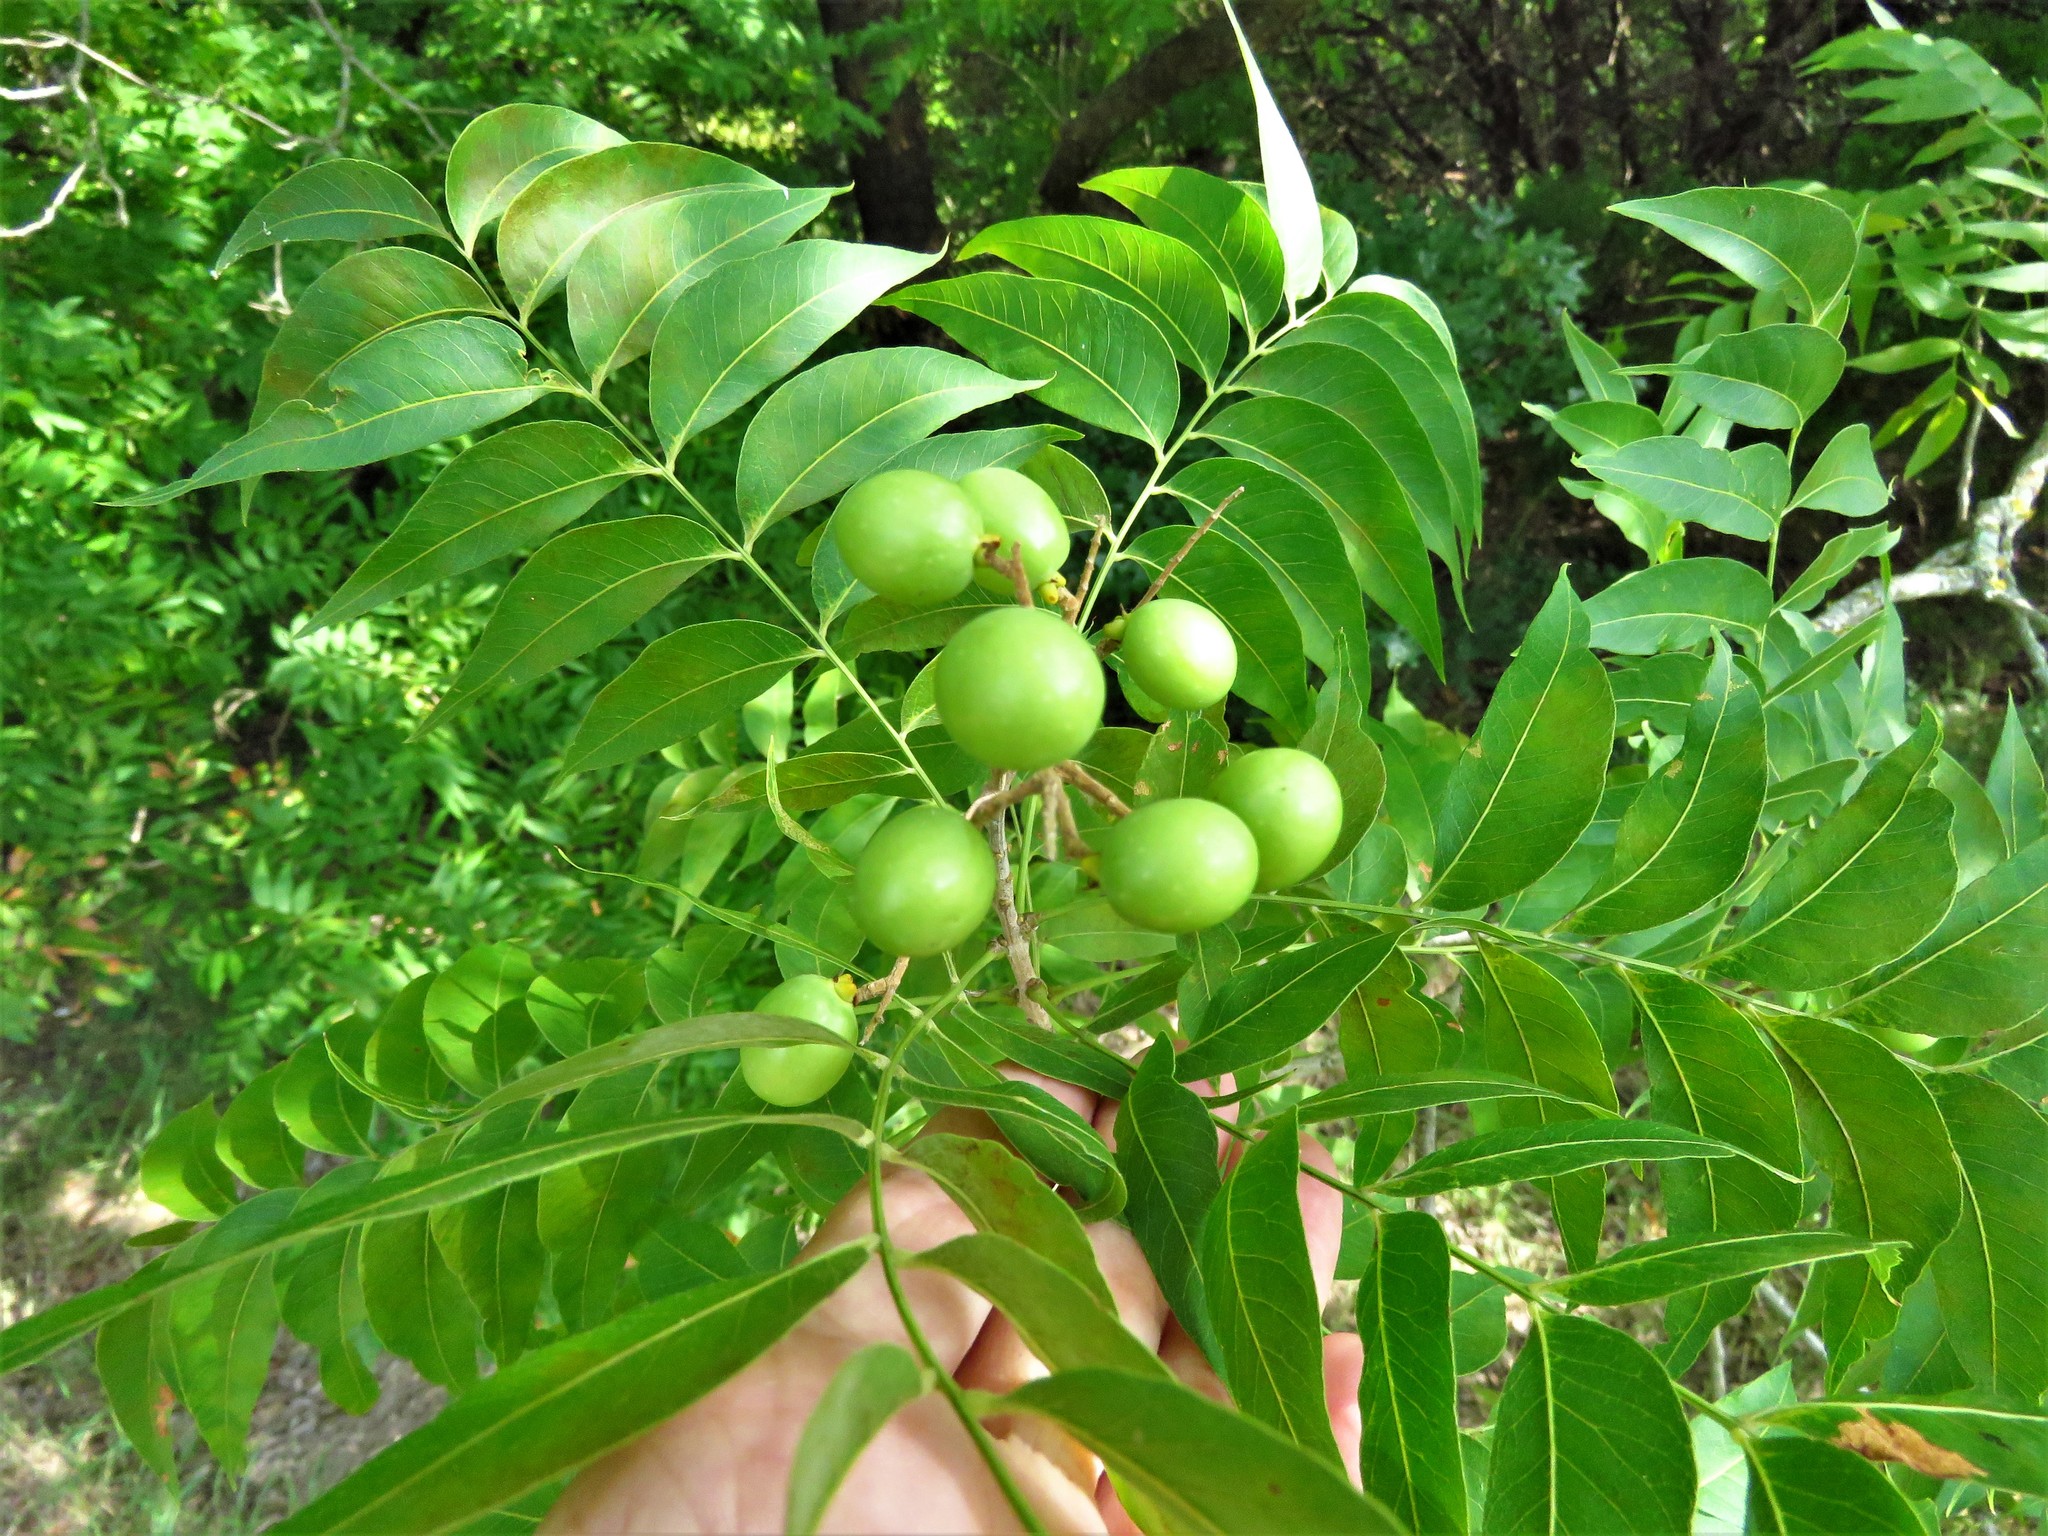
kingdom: Plantae
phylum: Tracheophyta
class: Magnoliopsida
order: Sapindales
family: Sapindaceae
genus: Sapindus
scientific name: Sapindus drummondii
